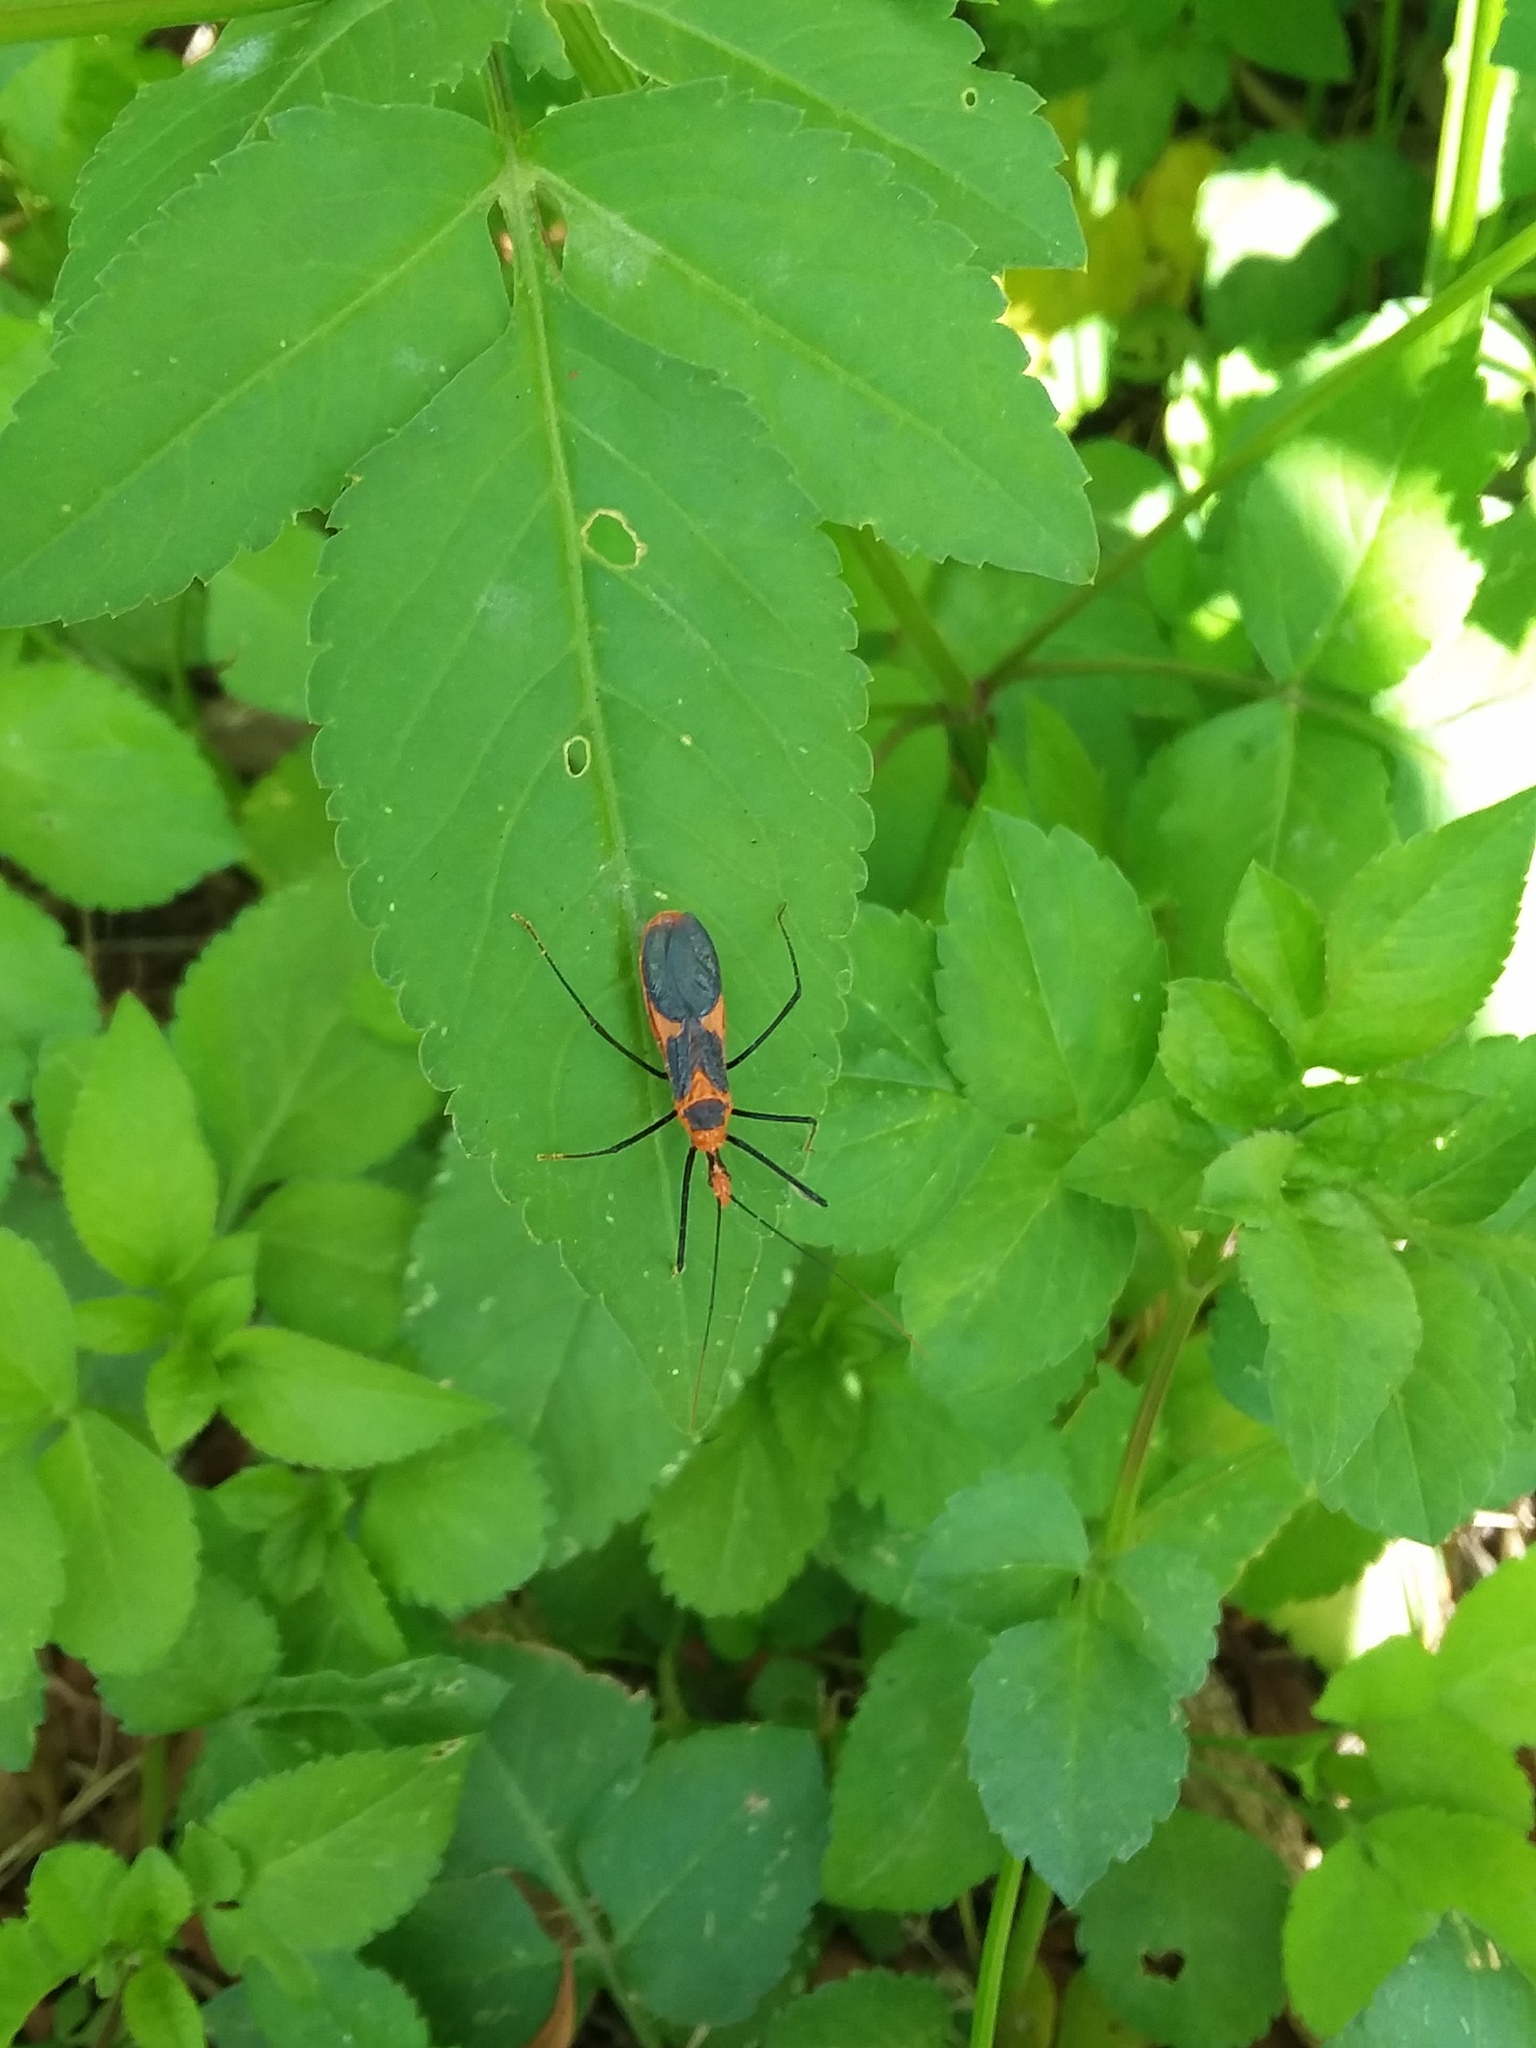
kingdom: Animalia
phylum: Arthropoda
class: Insecta
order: Hemiptera
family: Reduviidae
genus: Zelus
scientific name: Zelus longipes
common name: Milkweed assassin bug
